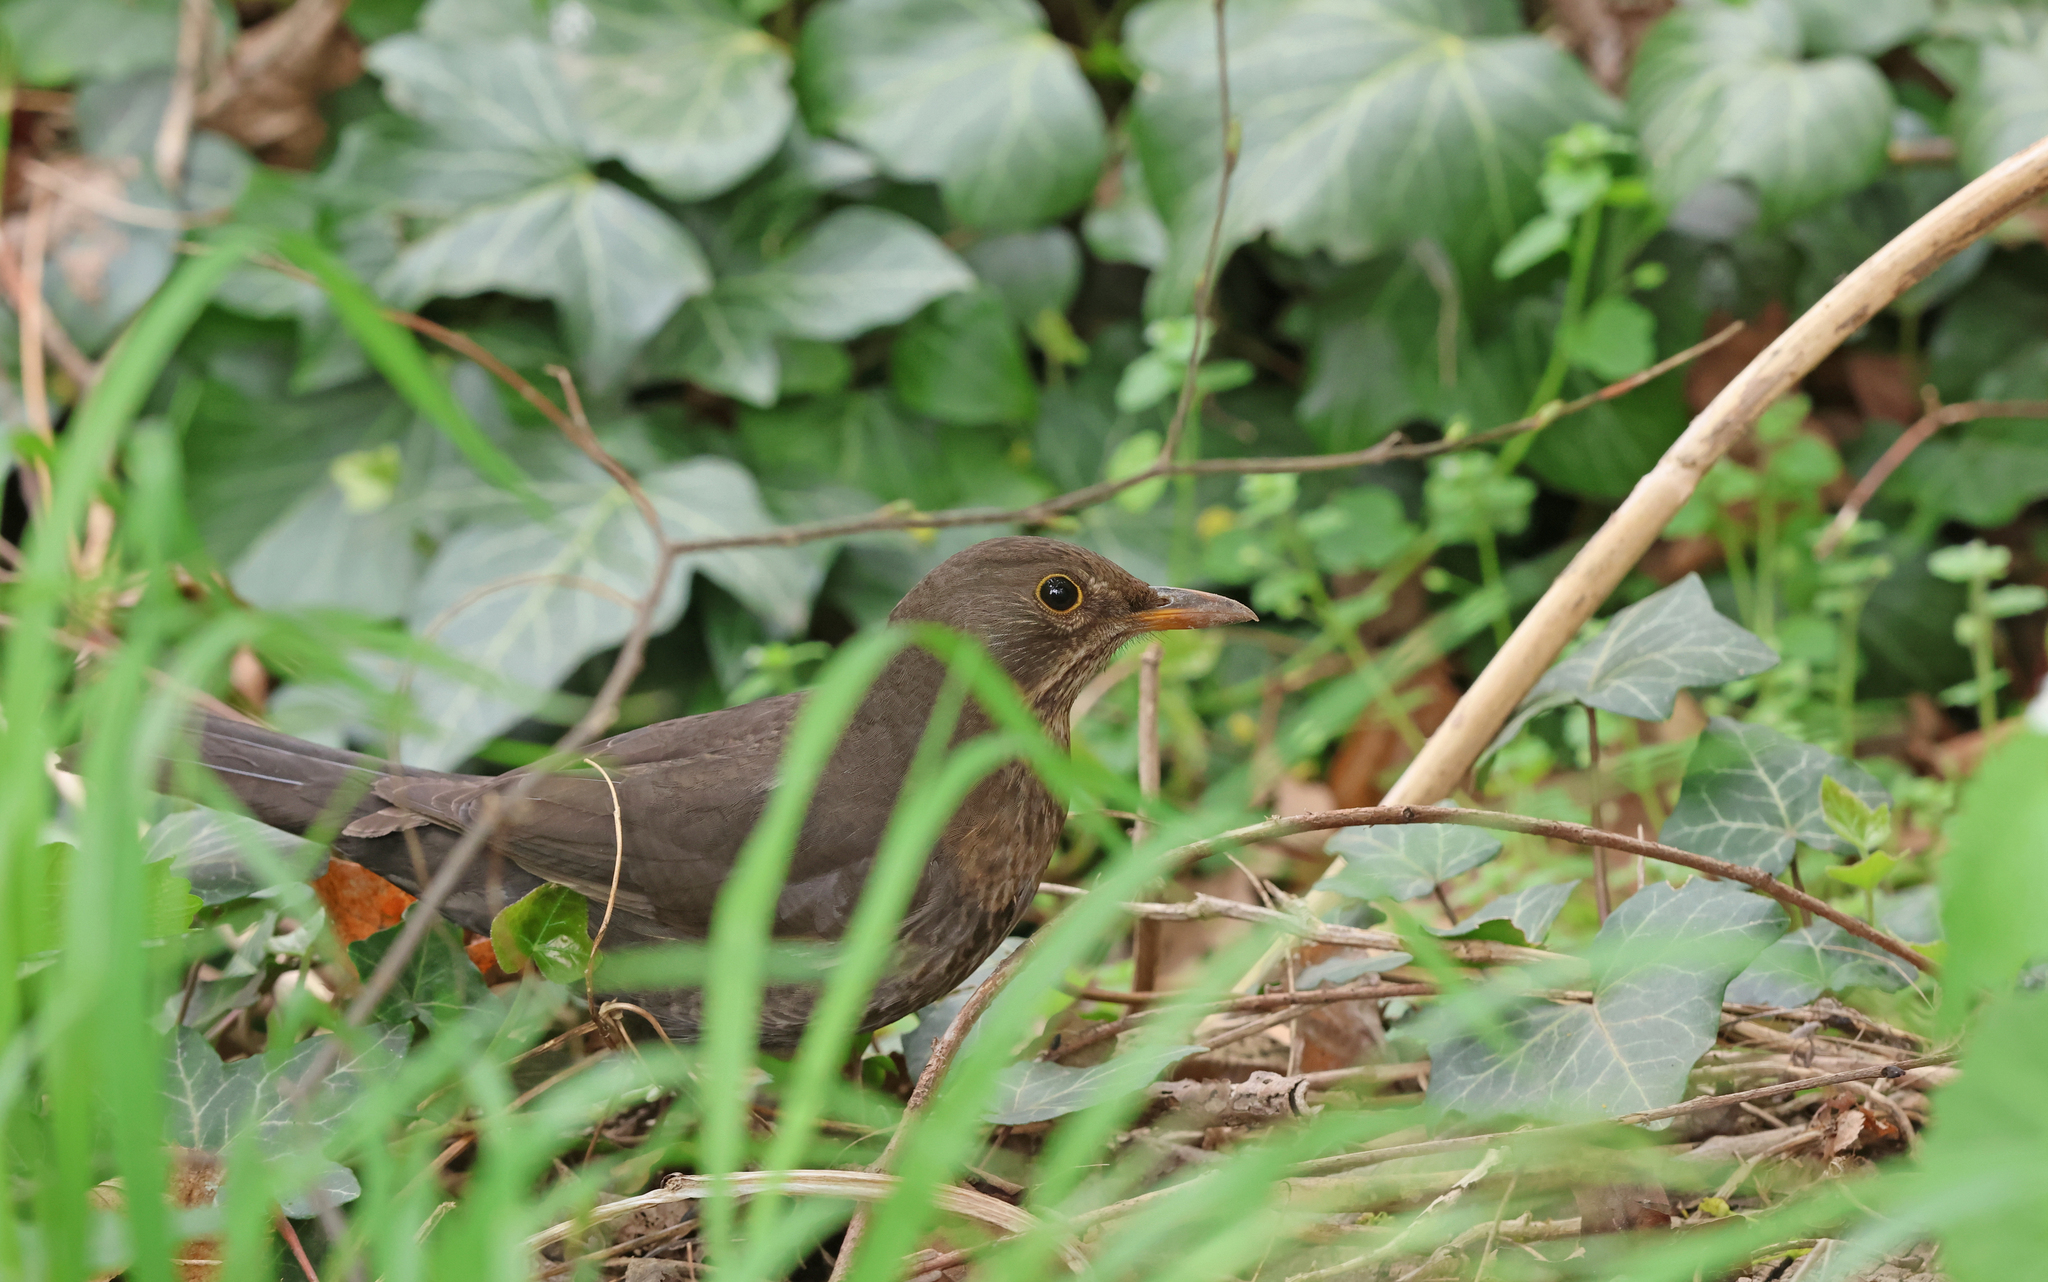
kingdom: Animalia
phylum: Chordata
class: Aves
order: Passeriformes
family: Turdidae
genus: Turdus
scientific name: Turdus merula
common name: Common blackbird
